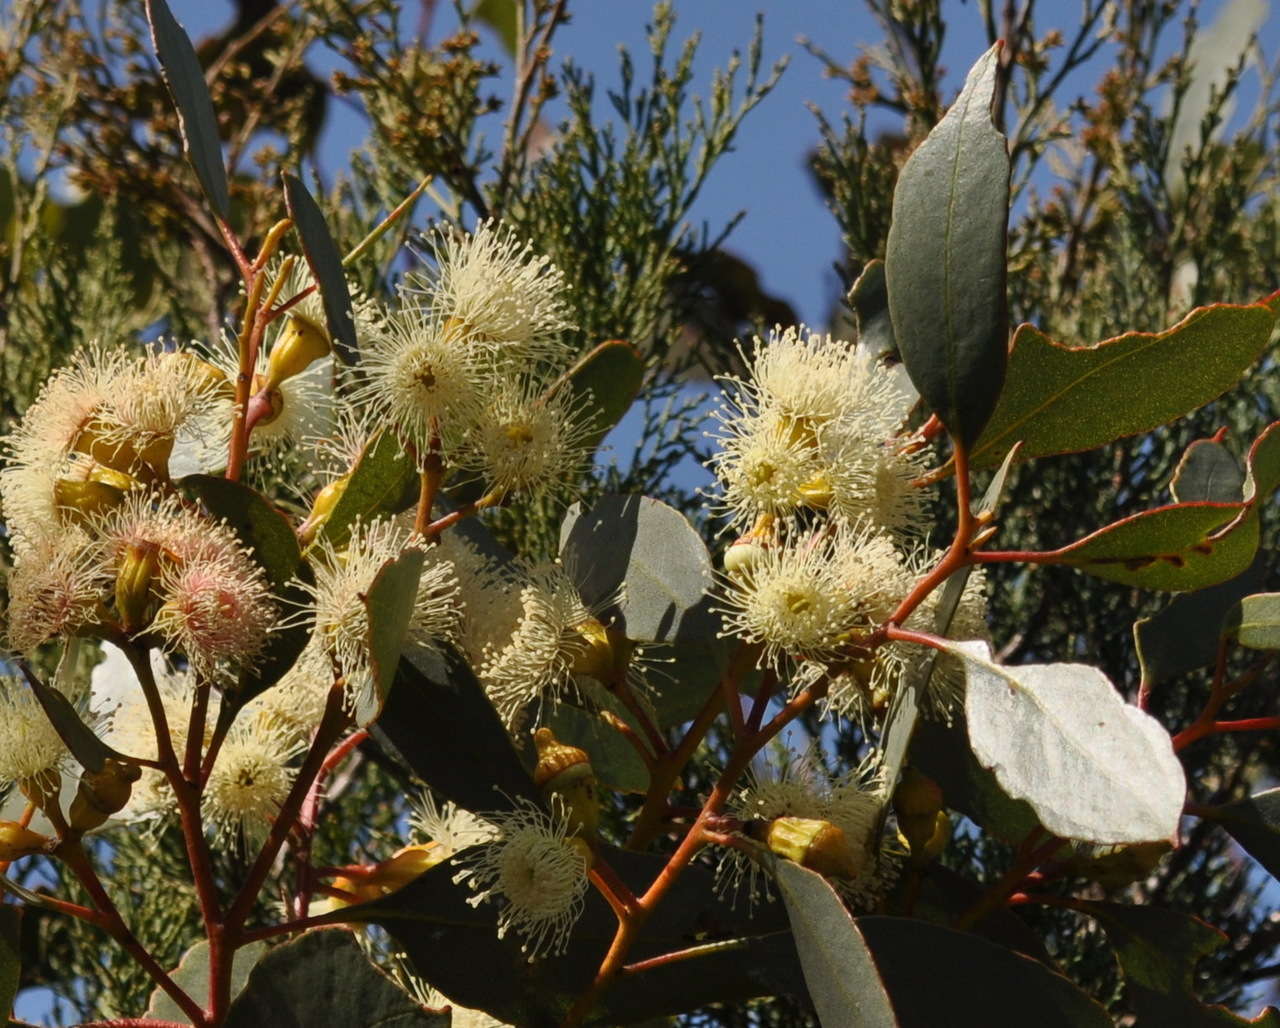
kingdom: Plantae
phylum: Tracheophyta
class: Magnoliopsida
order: Myrtales
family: Myrtaceae
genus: Eucalyptus
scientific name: Eucalyptus incrassata
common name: Ridge-fruit mallee
